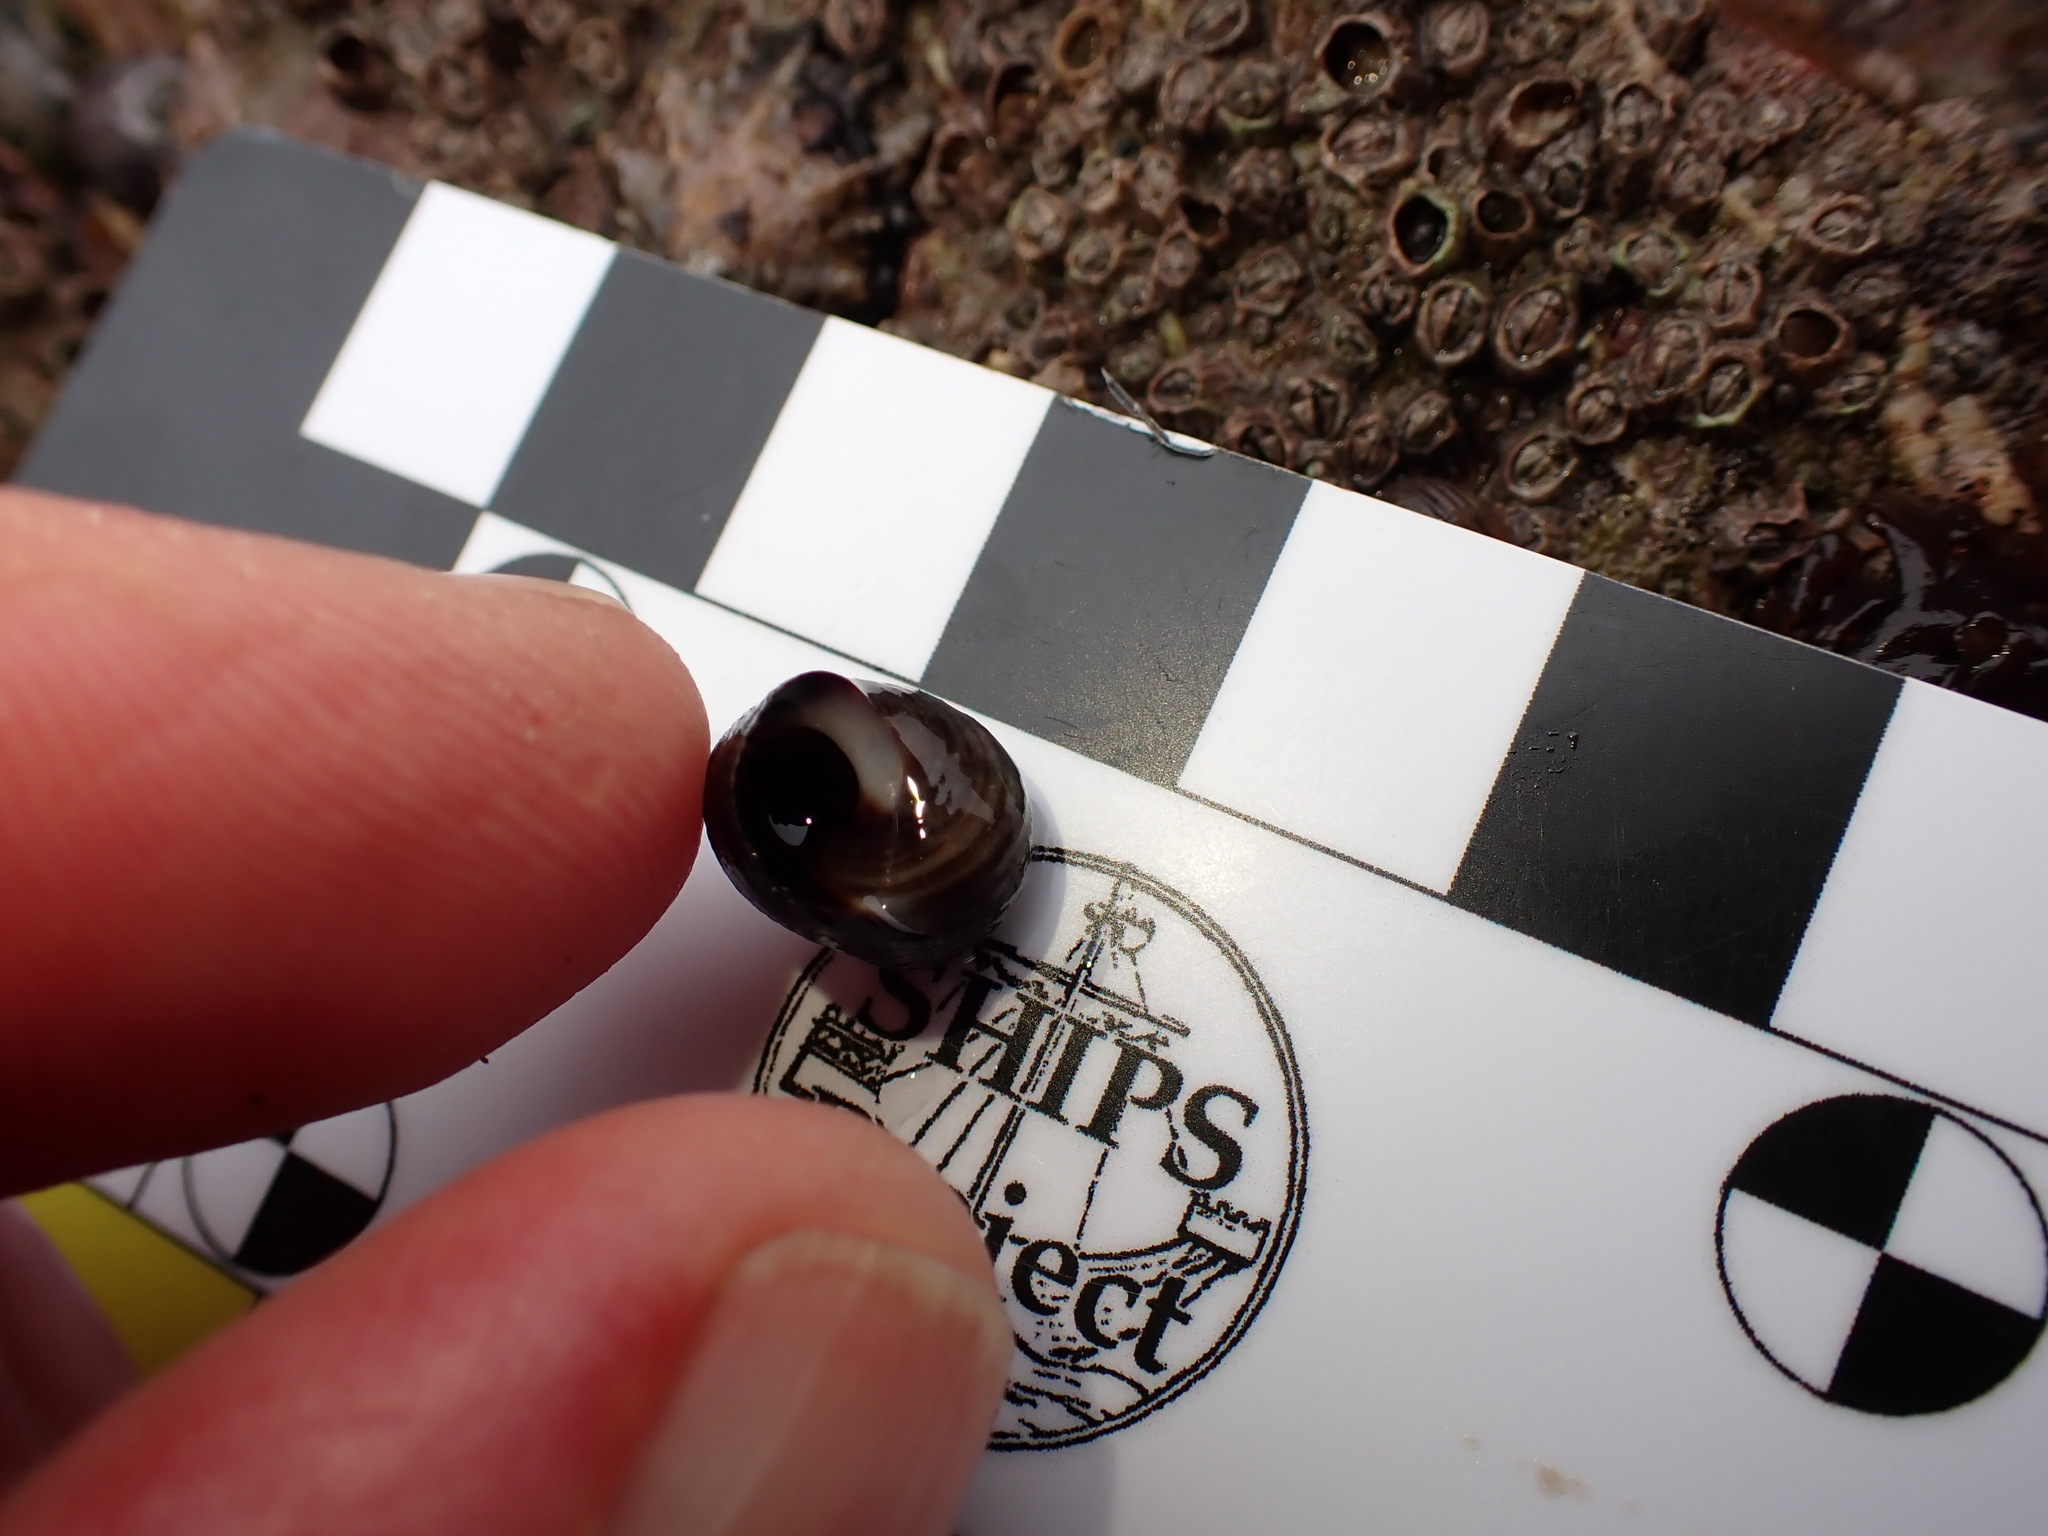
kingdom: Animalia
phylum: Mollusca
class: Gastropoda
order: Littorinimorpha
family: Littorinidae
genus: Littorina
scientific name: Littorina littorea
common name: Common periwinkle
